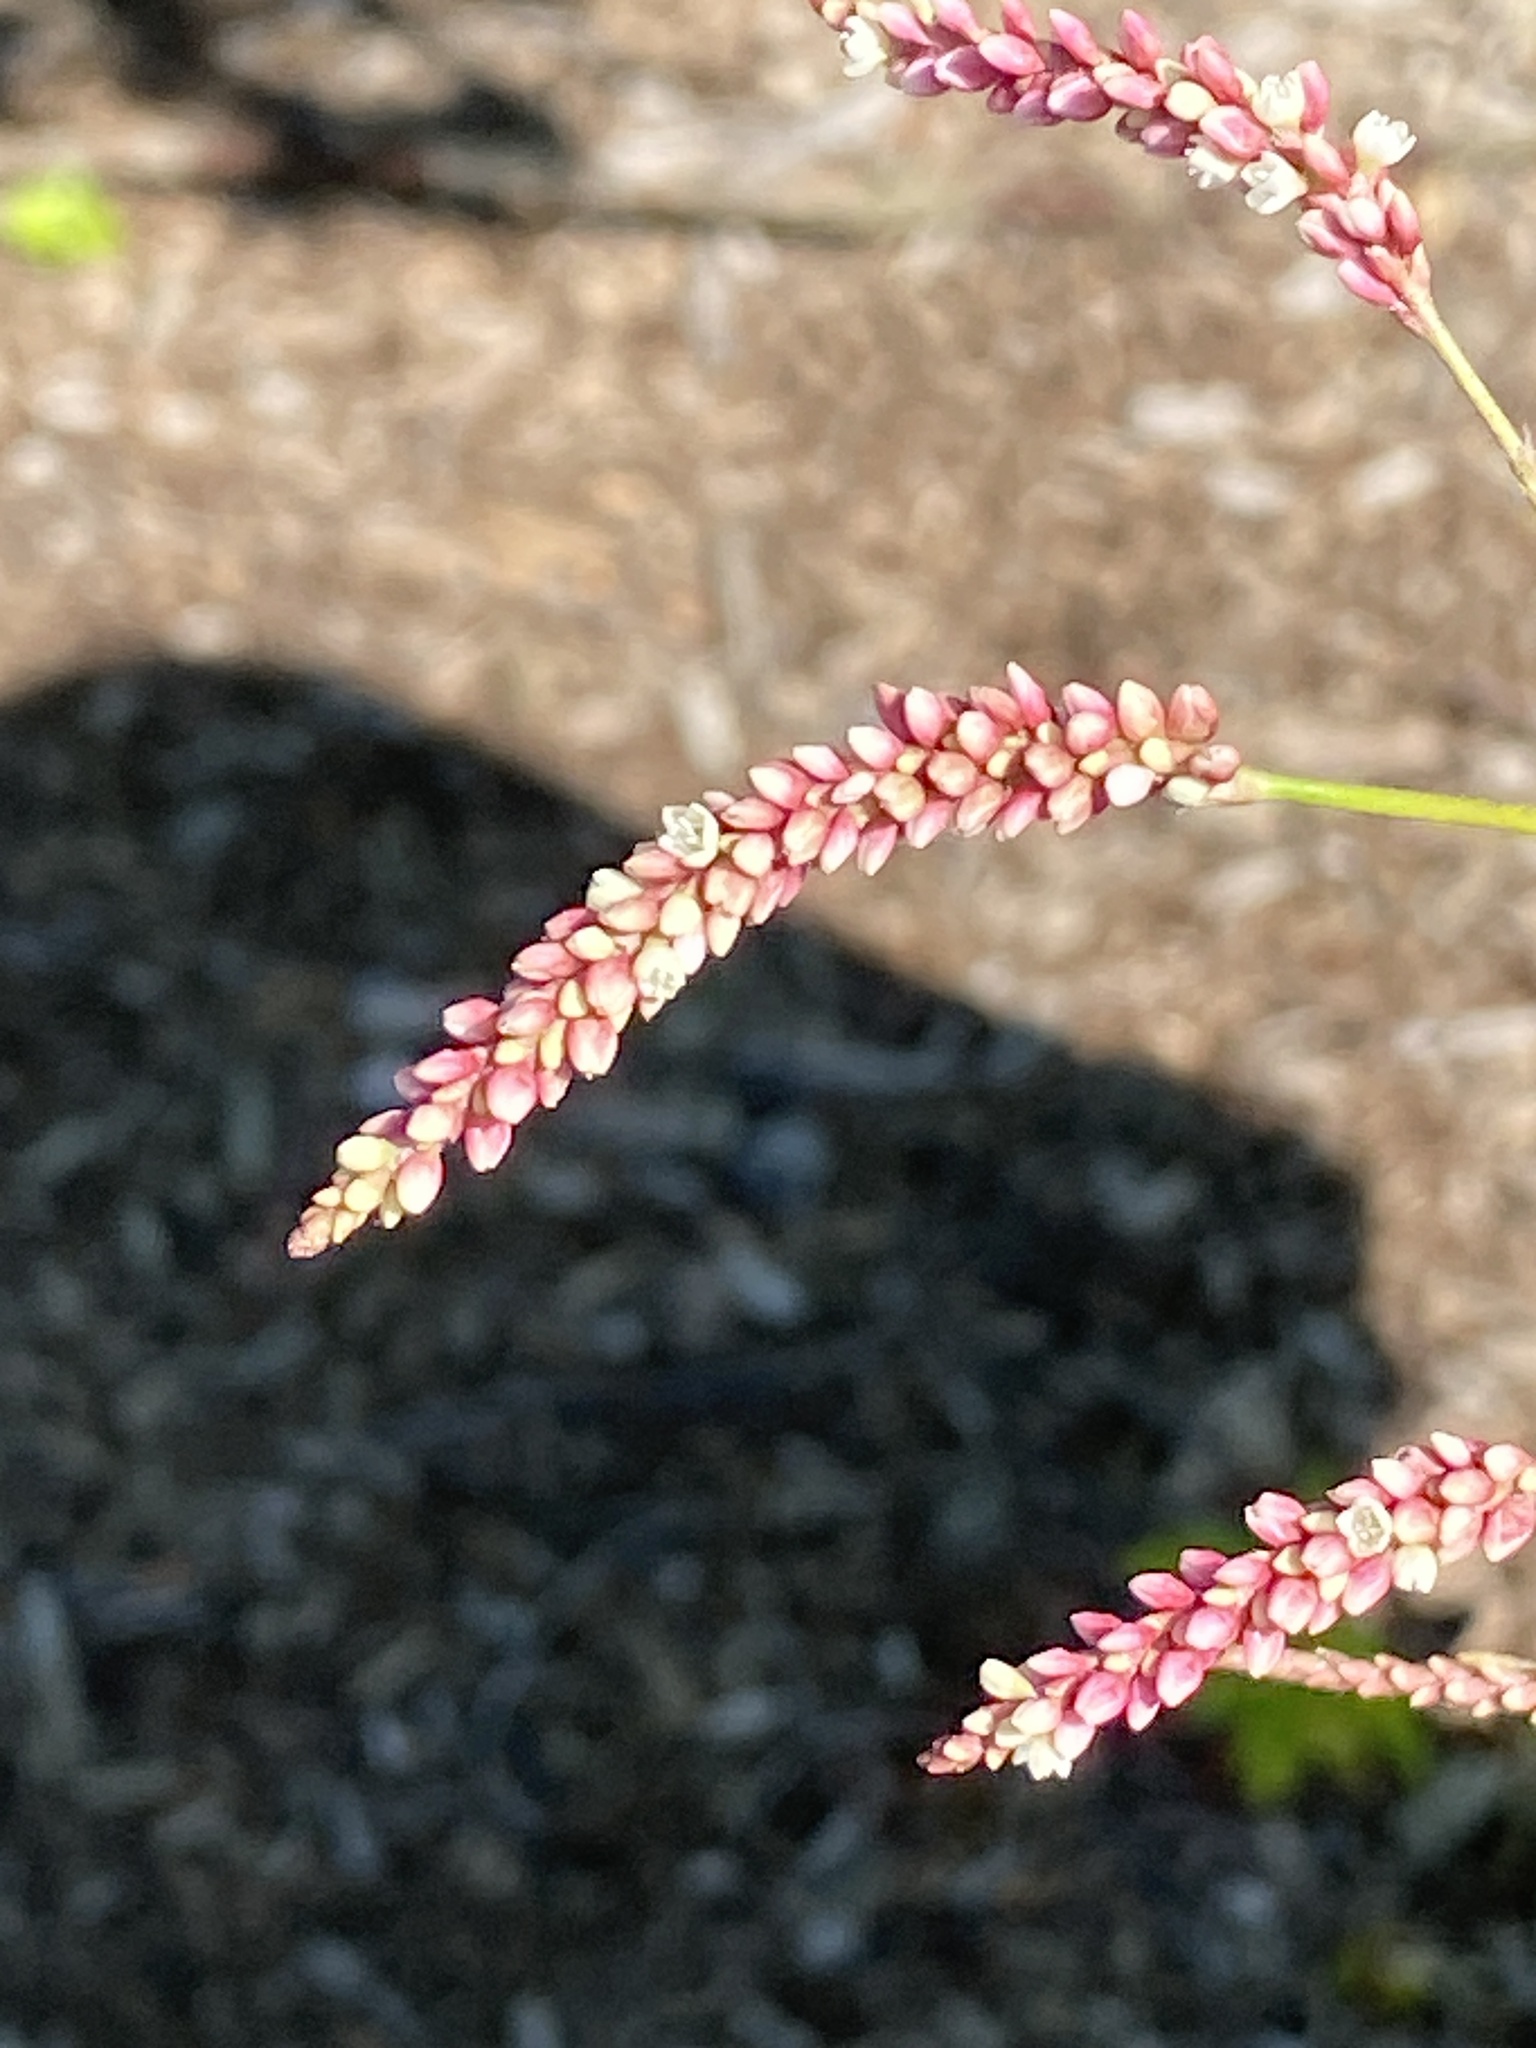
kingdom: Plantae
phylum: Tracheophyta
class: Magnoliopsida
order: Caryophyllales
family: Polygonaceae
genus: Persicaria
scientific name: Persicaria extremiorientalis
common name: Far-eastern smartweed
